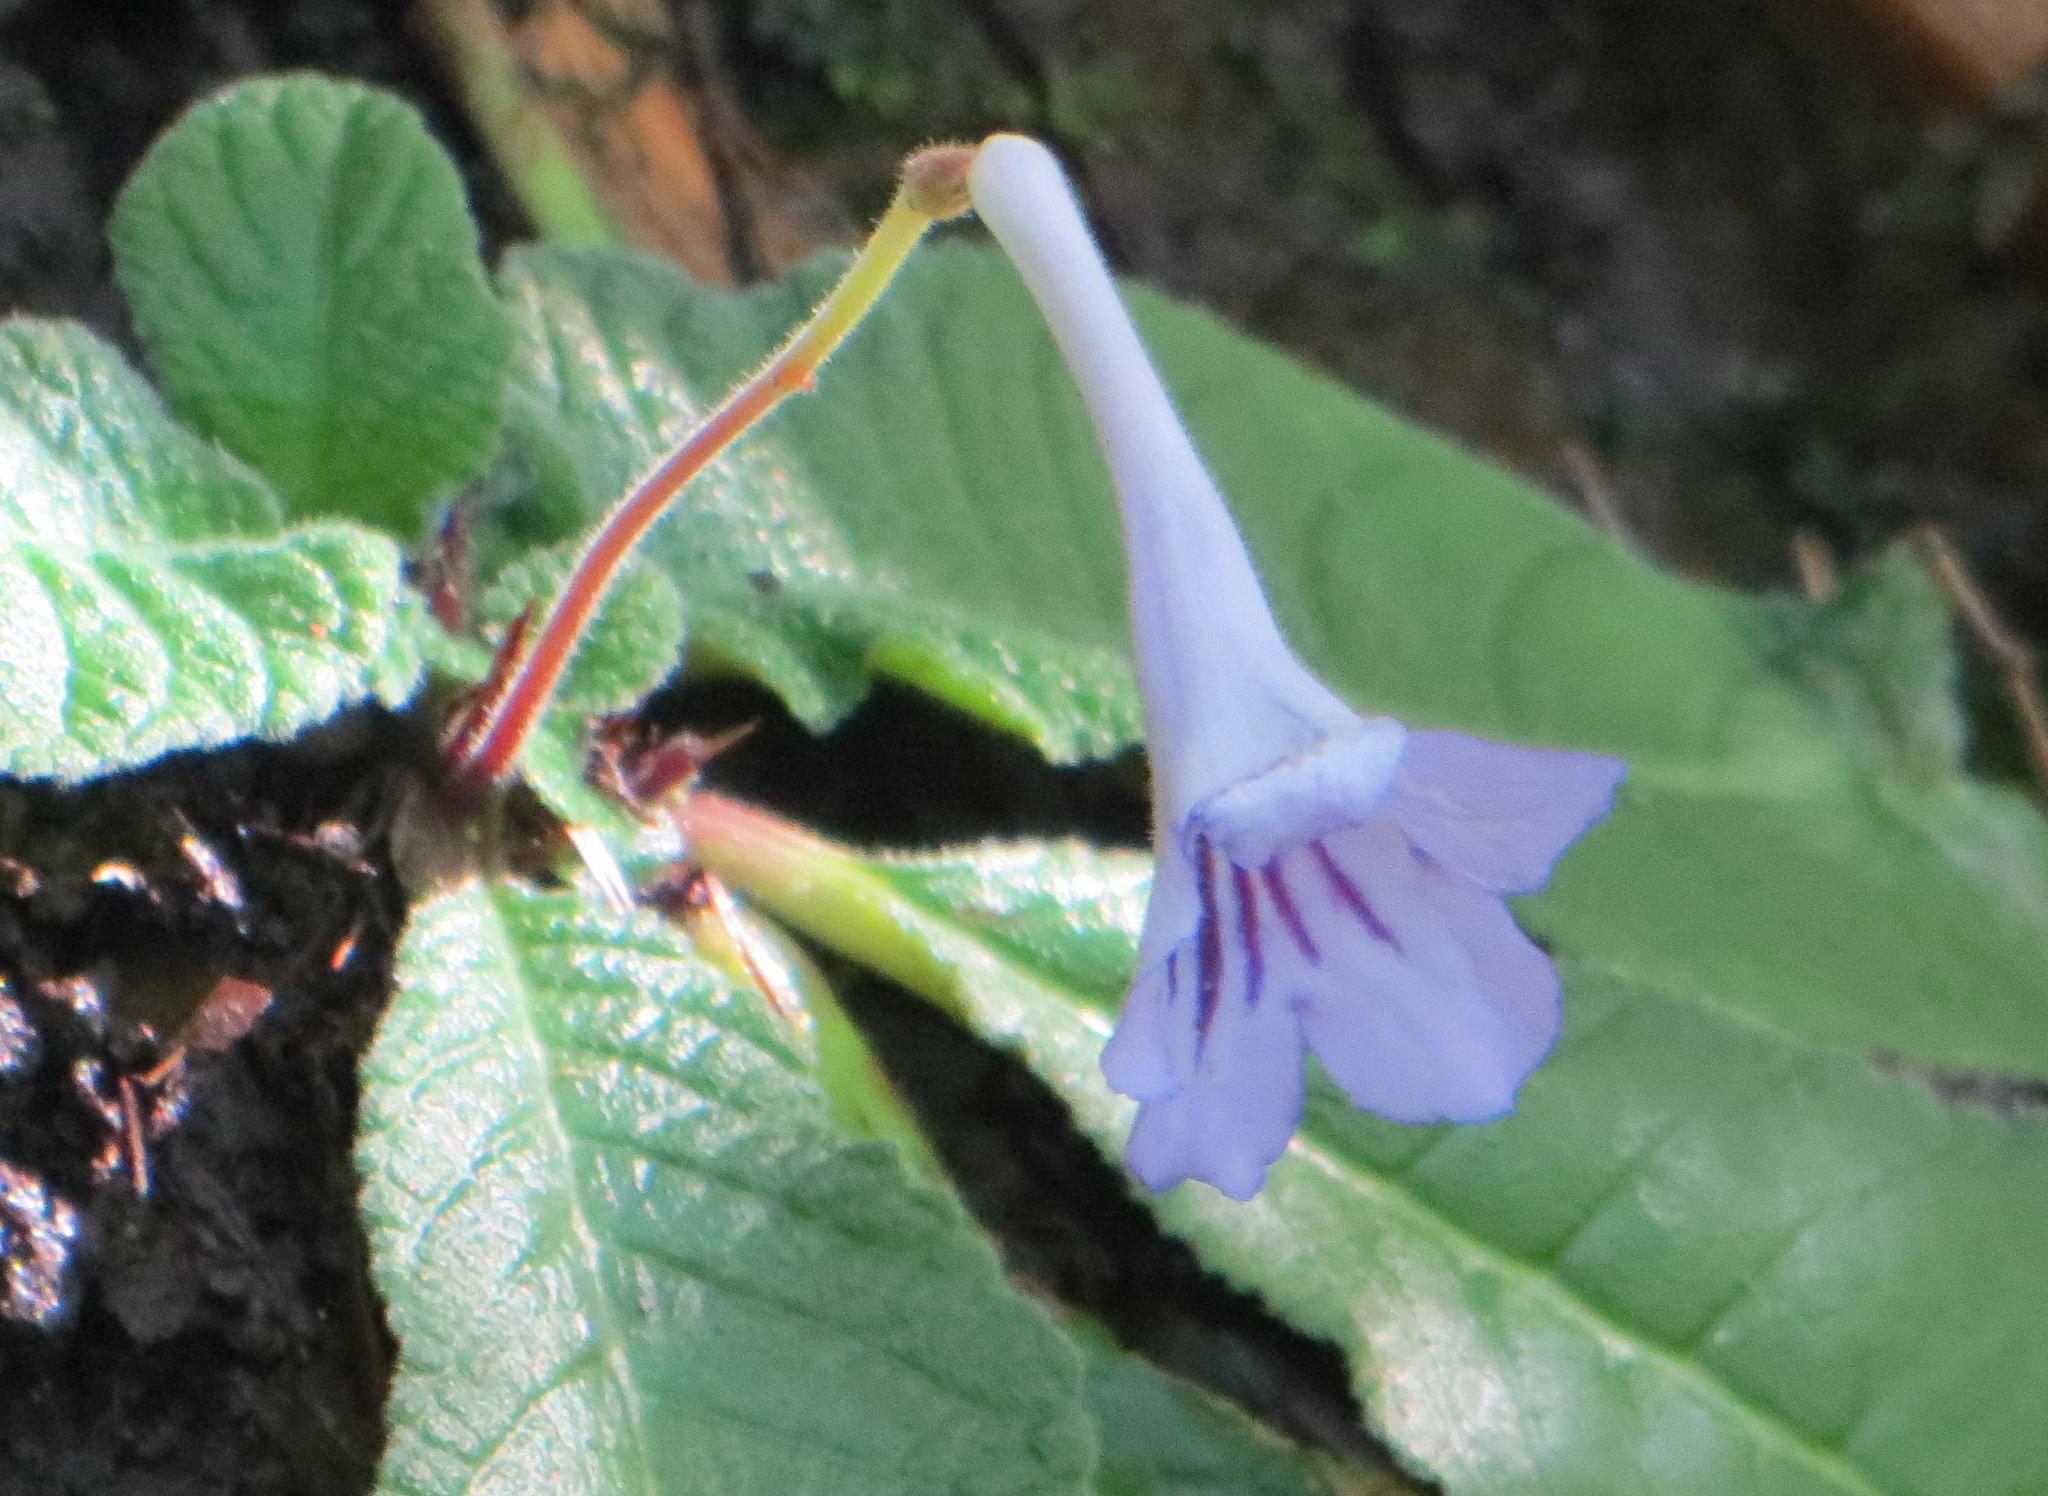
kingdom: Plantae
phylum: Tracheophyta
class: Magnoliopsida
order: Lamiales
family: Gesneriaceae
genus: Streptocarpus
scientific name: Streptocarpus rexii
